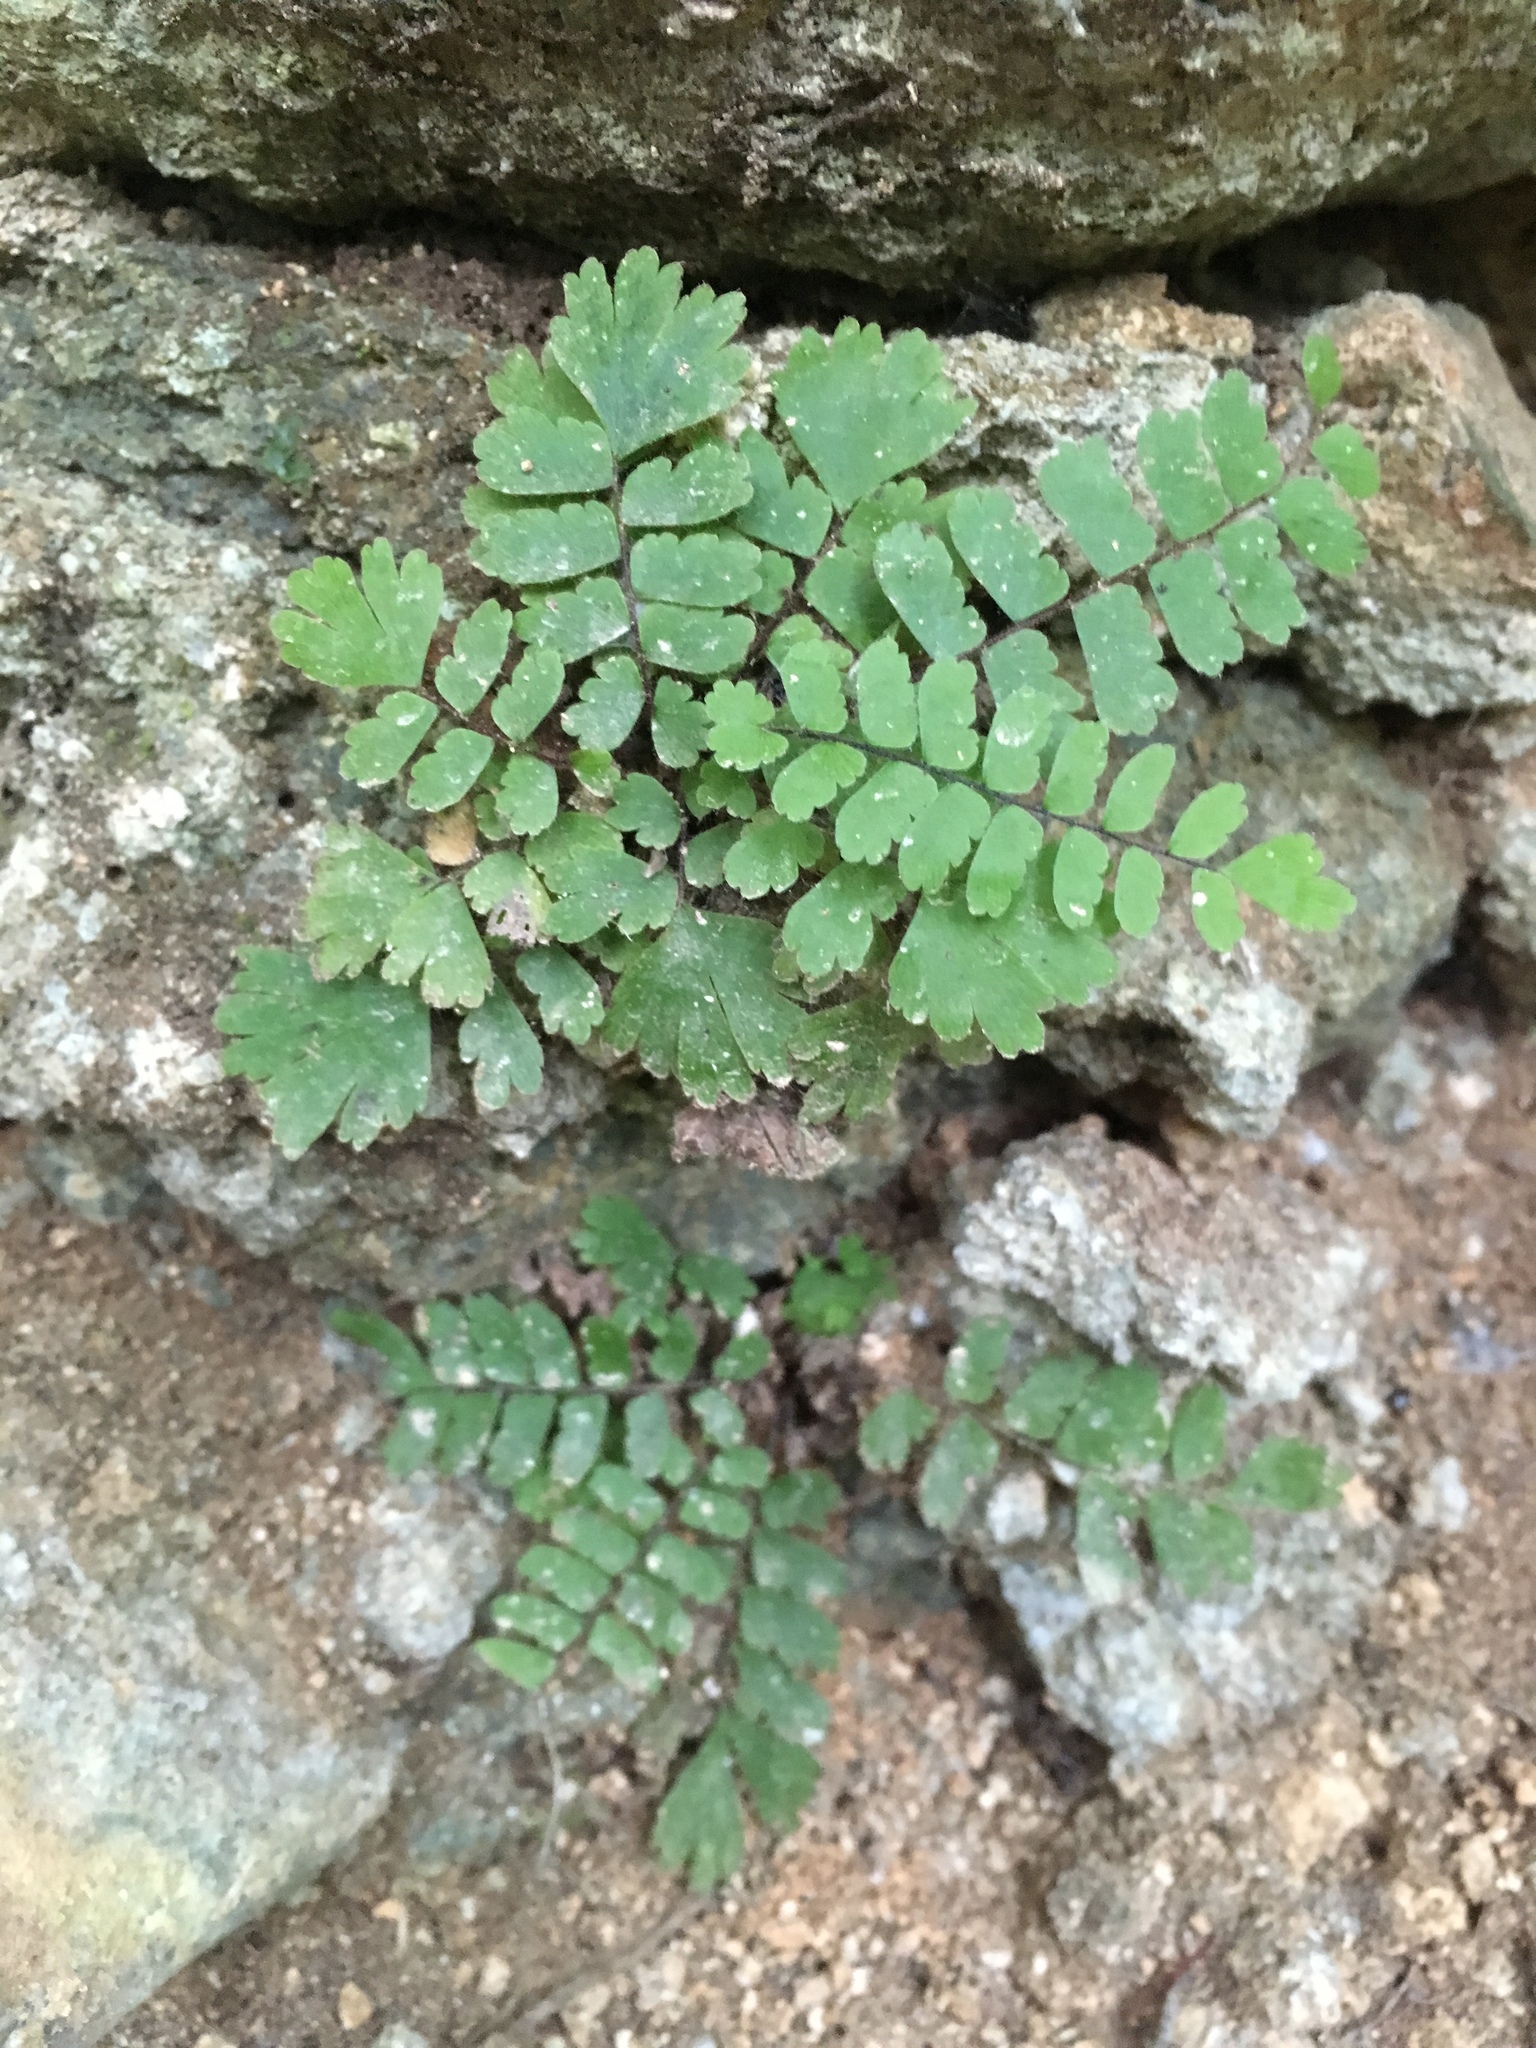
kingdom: Plantae
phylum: Tracheophyta
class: Polypodiopsida
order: Polypodiales
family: Pteridaceae
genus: Adiantum
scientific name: Adiantum zollingeri
